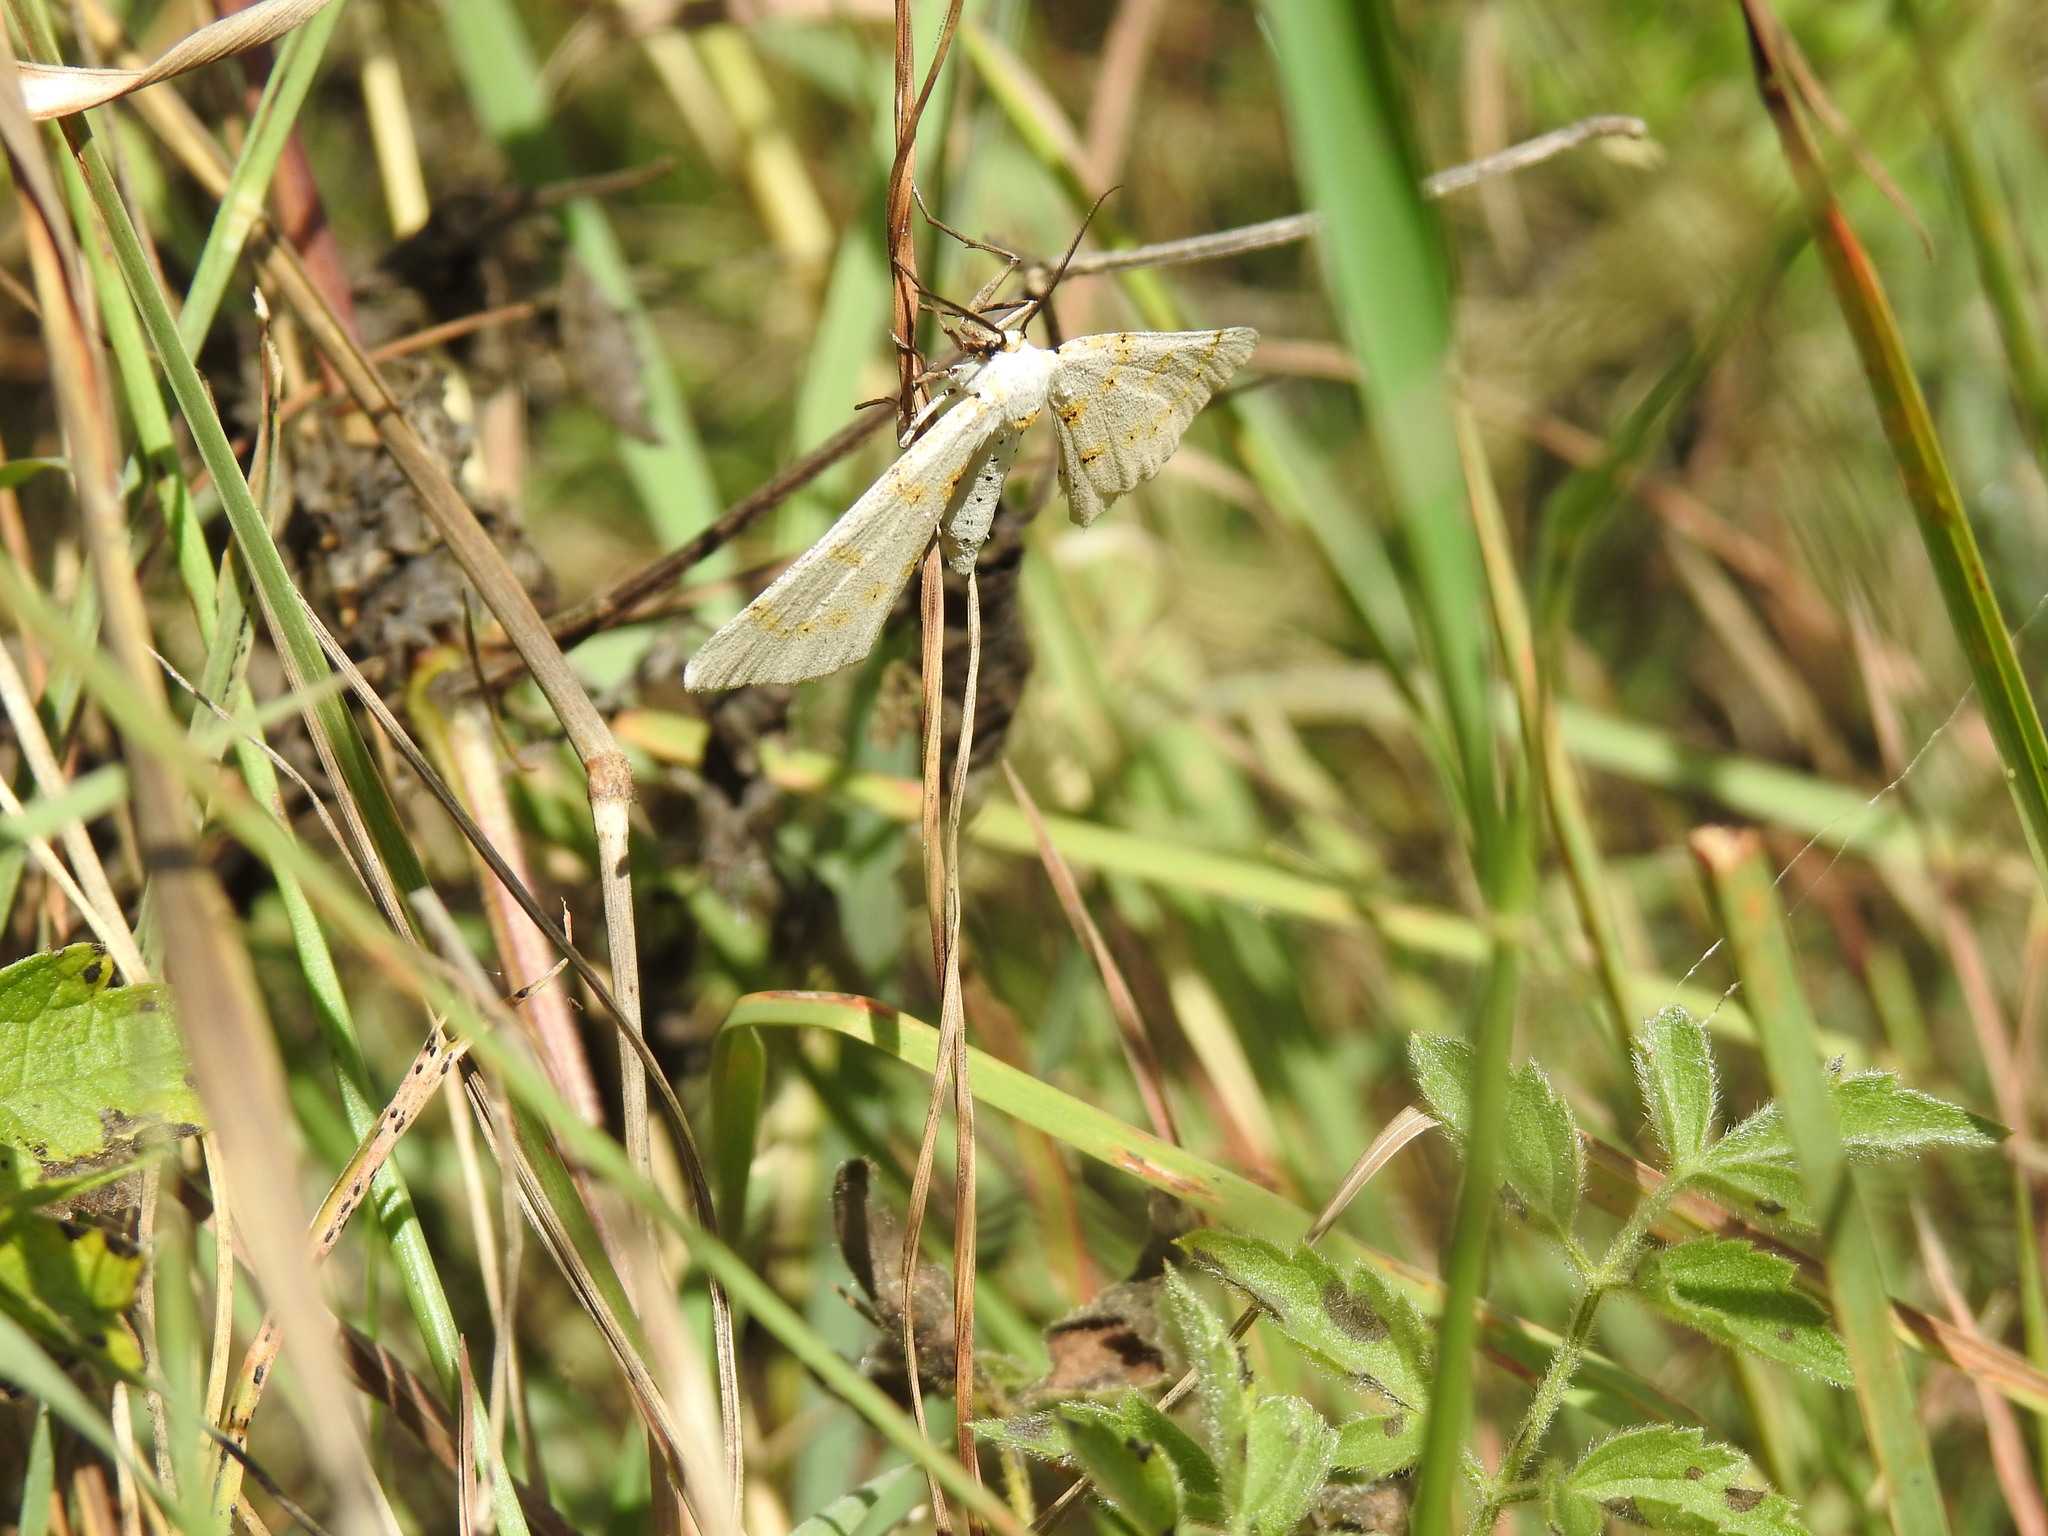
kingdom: Animalia
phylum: Arthropoda
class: Insecta
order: Lepidoptera
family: Geometridae
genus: Nassinia
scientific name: Nassinia caffraria
